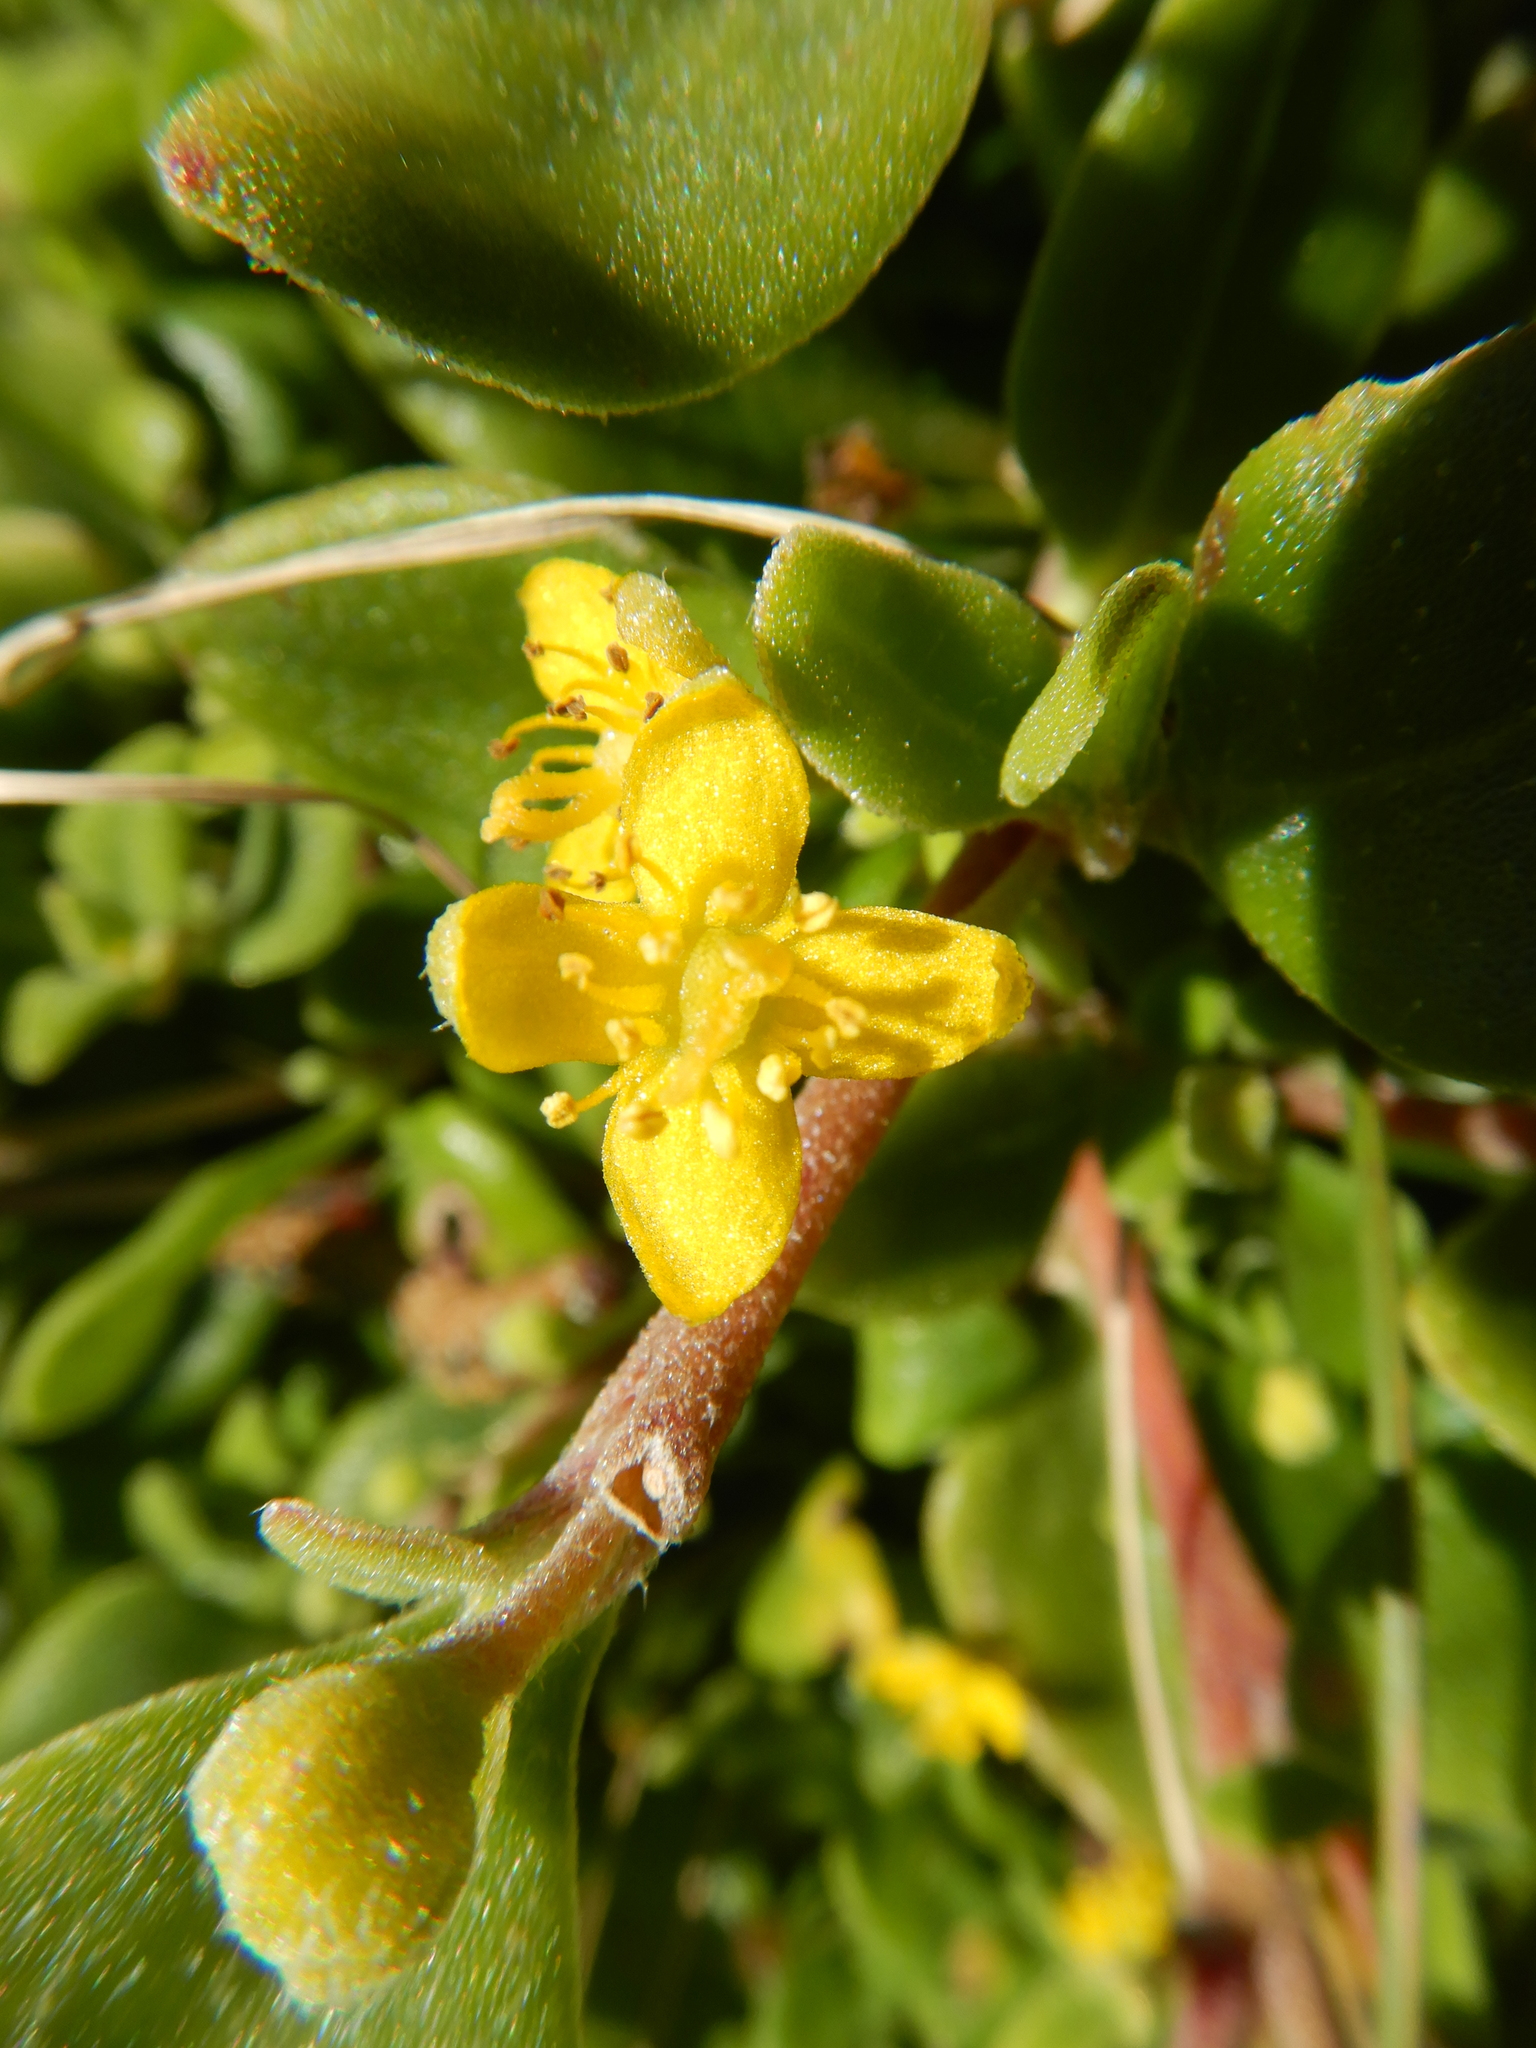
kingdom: Plantae
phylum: Tracheophyta
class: Magnoliopsida
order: Caryophyllales
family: Aizoaceae
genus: Tetragonia
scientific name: Tetragonia implexicoma
